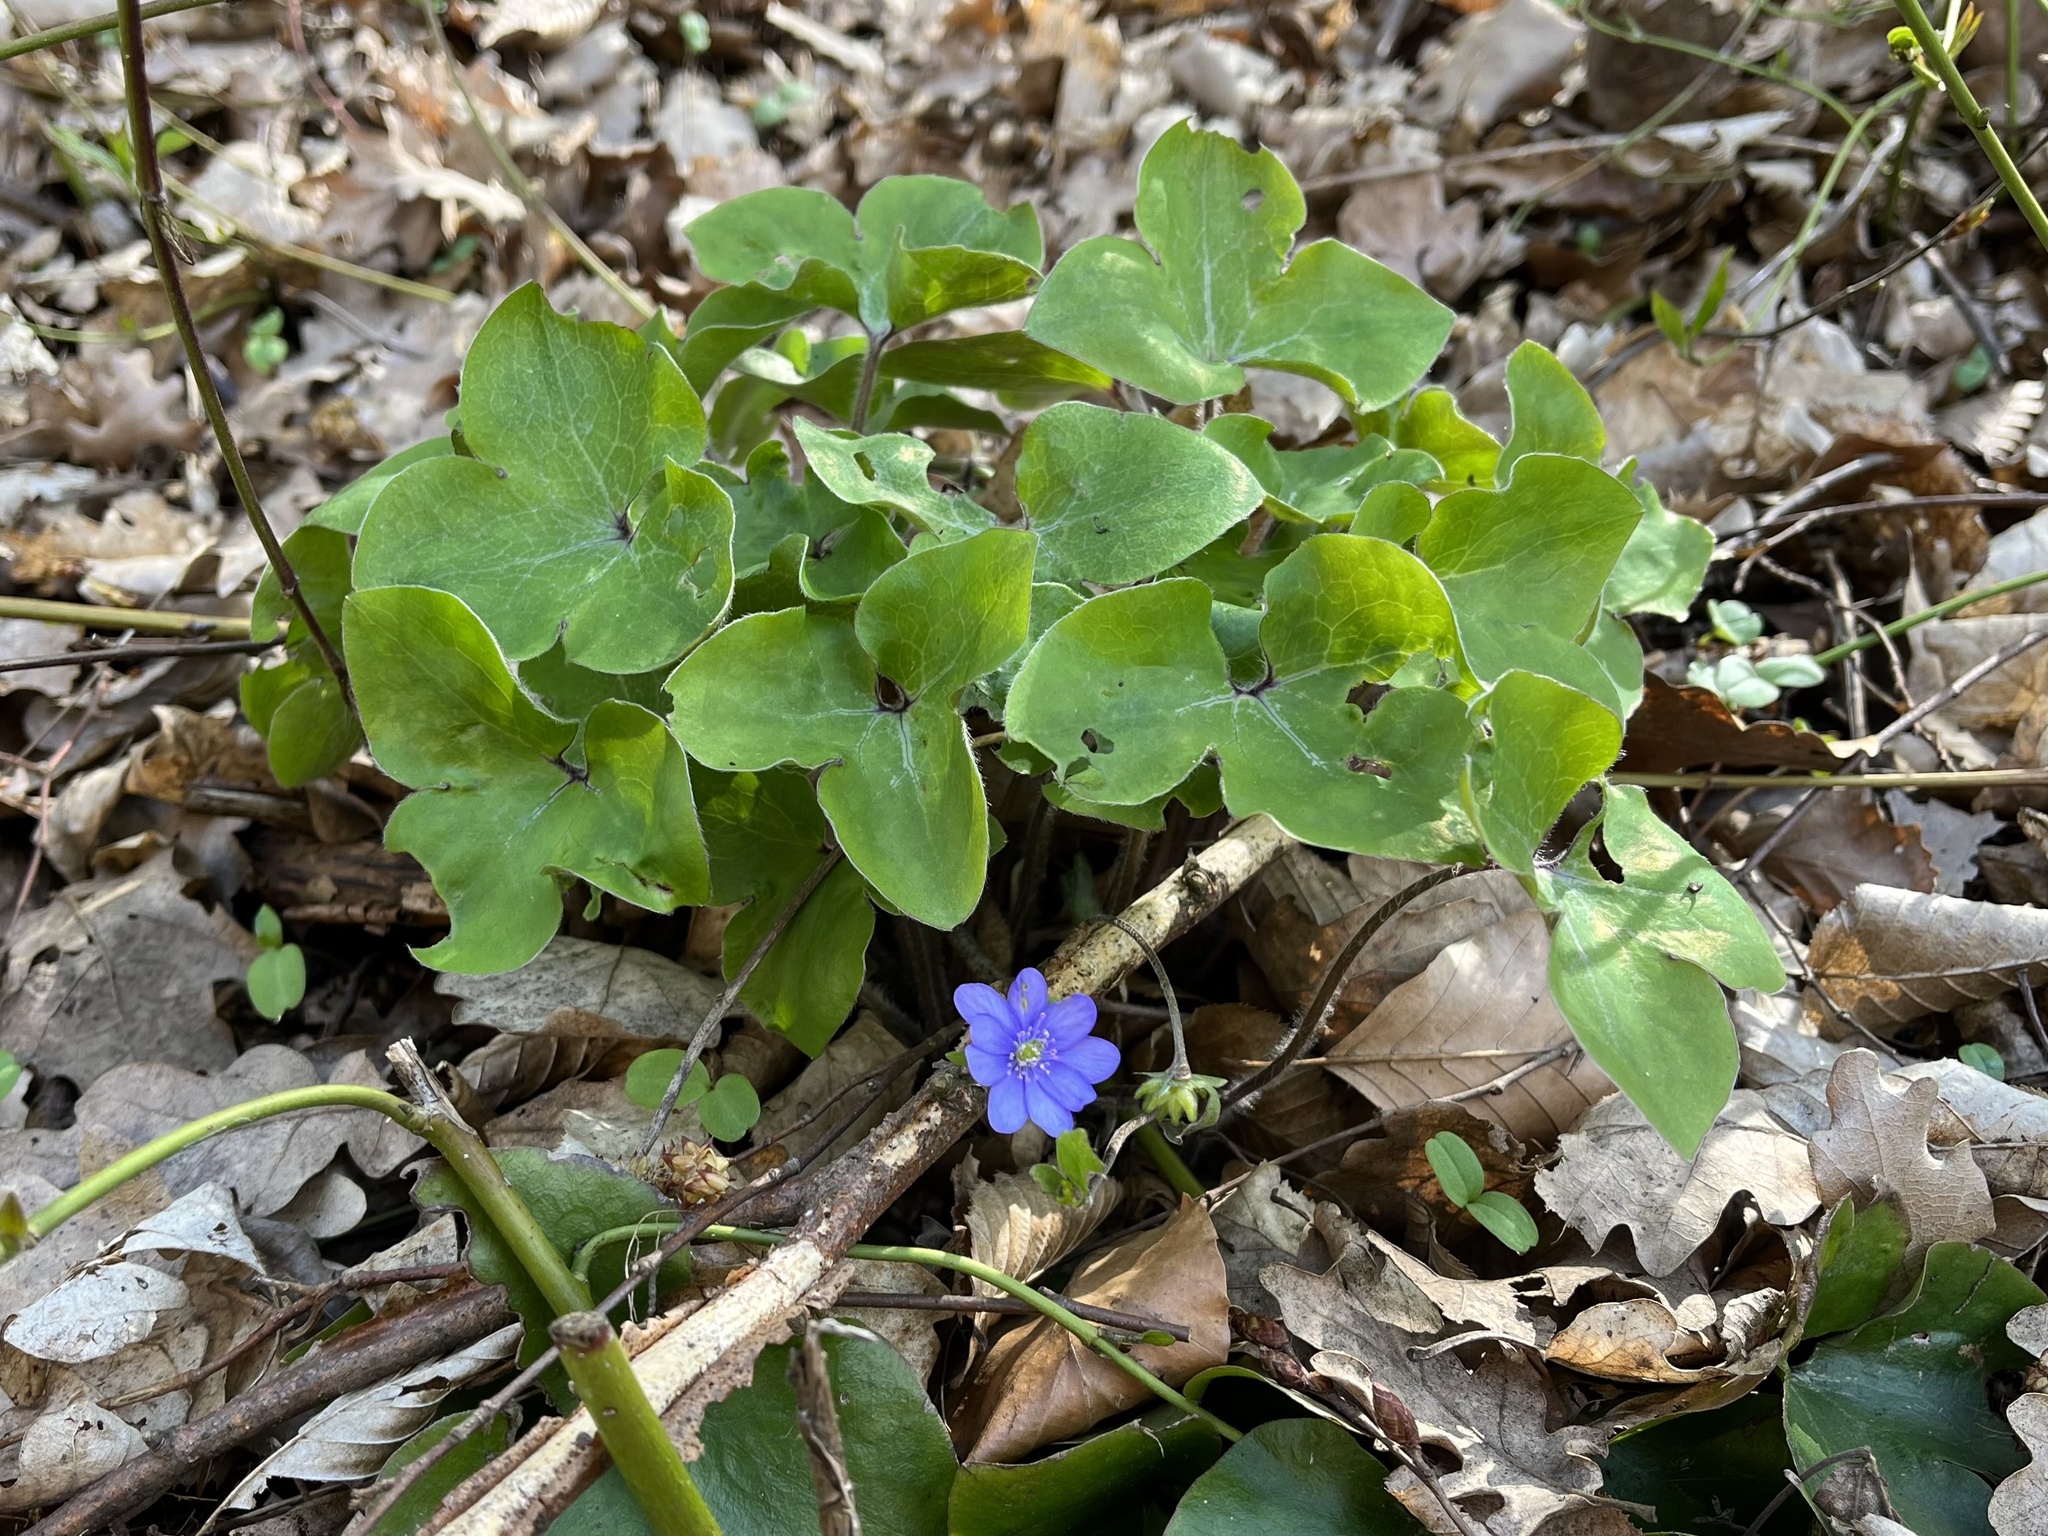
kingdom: Plantae
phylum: Tracheophyta
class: Magnoliopsida
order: Ranunculales
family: Ranunculaceae
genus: Hepatica
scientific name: Hepatica nobilis
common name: Liverleaf
